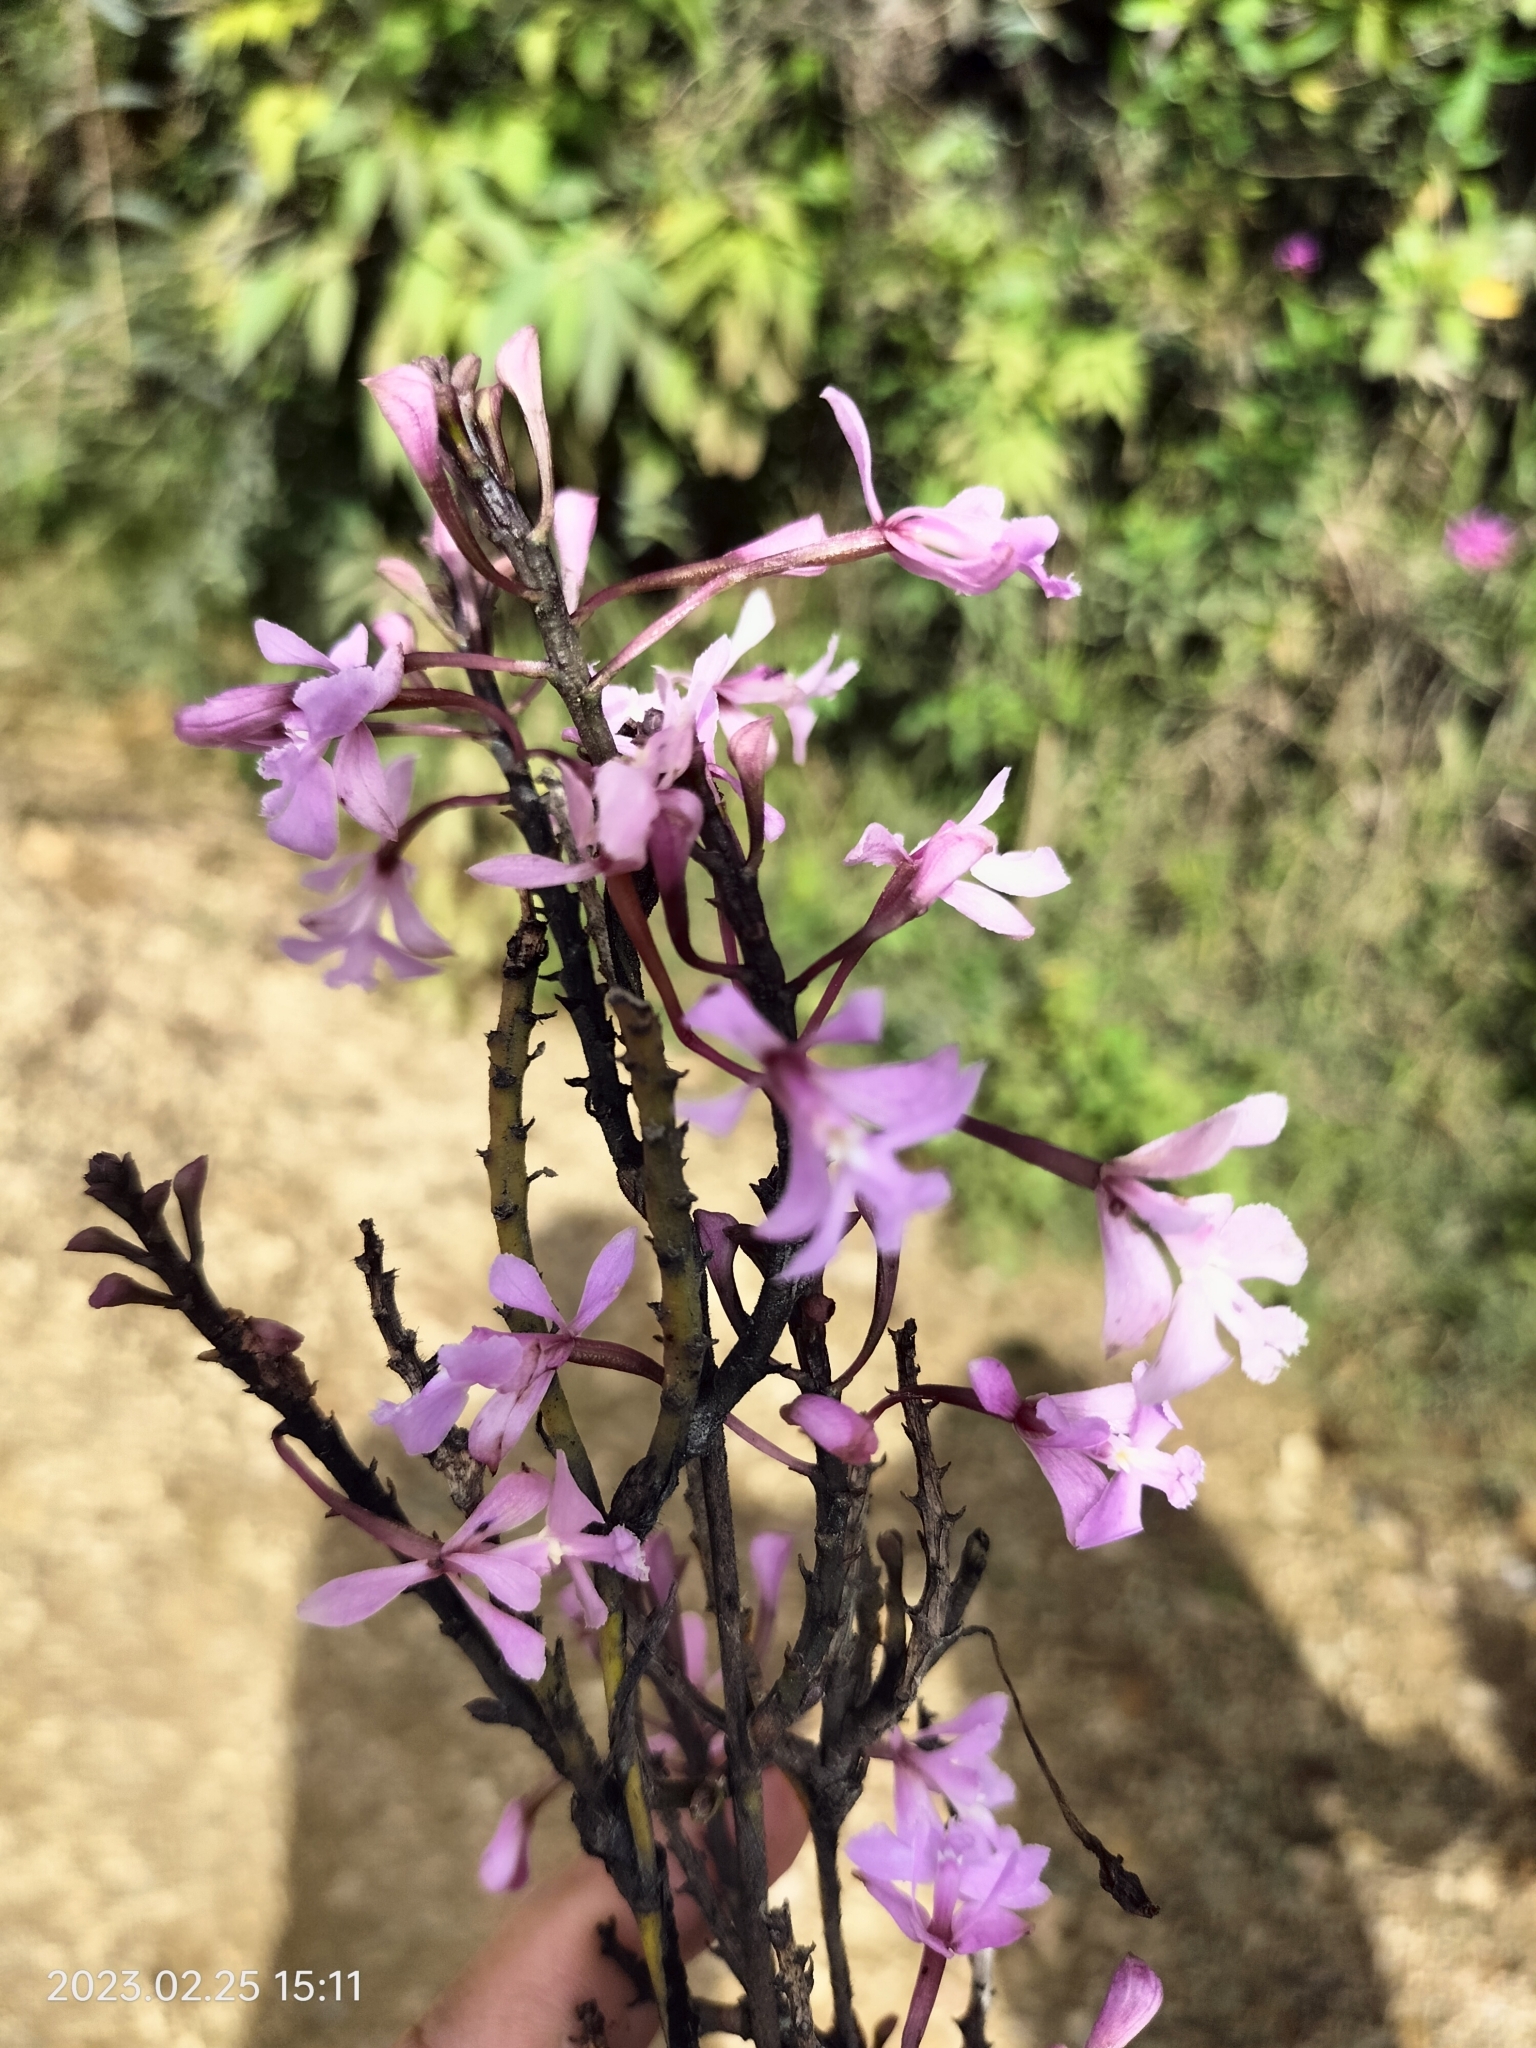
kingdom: Plantae
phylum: Tracheophyta
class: Liliopsida
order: Asparagales
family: Orchidaceae
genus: Epidendrum
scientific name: Epidendrum blepharistes
